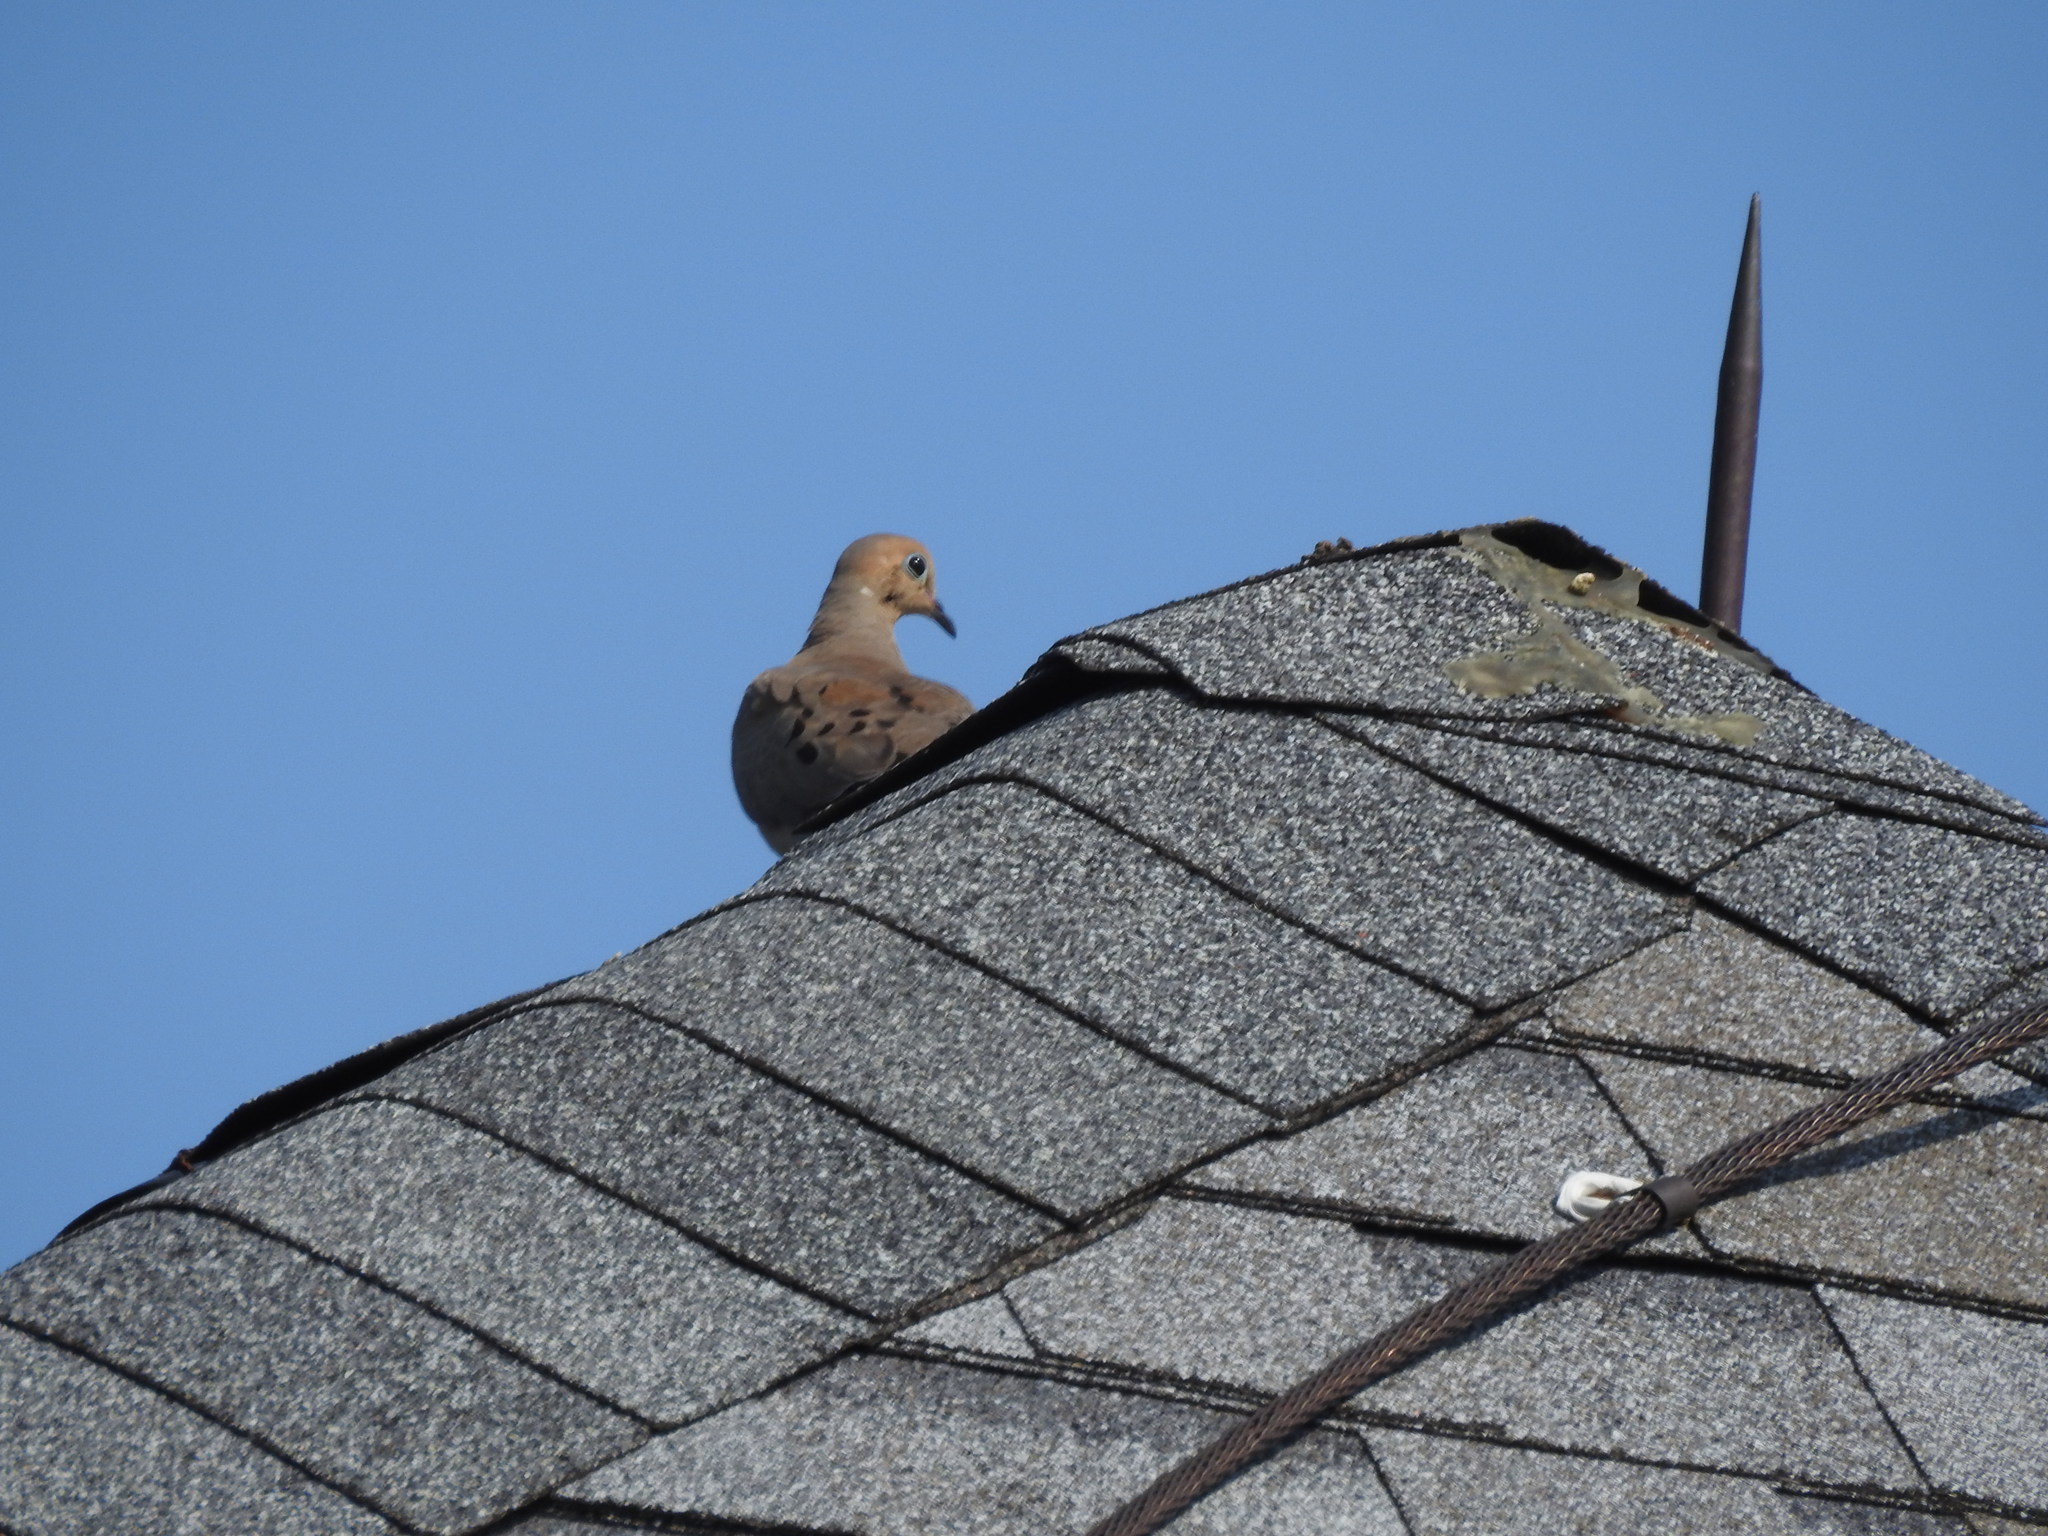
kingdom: Animalia
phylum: Chordata
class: Aves
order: Columbiformes
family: Columbidae
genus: Zenaida
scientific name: Zenaida macroura
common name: Mourning dove
